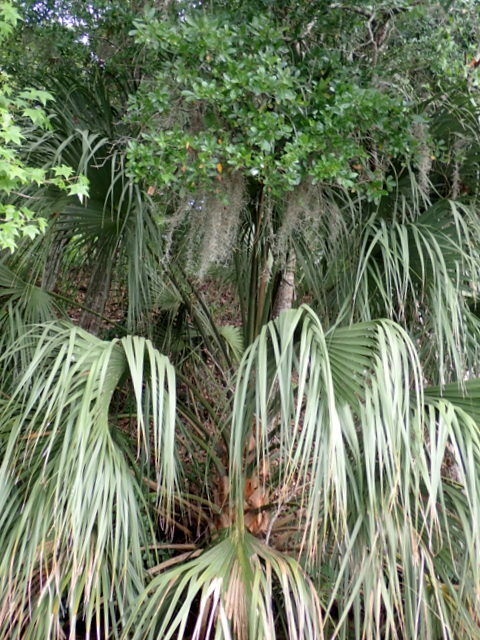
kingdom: Plantae
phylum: Tracheophyta
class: Liliopsida
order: Arecales
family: Arecaceae
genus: Sabal
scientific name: Sabal palmetto
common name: Blue palmetto
